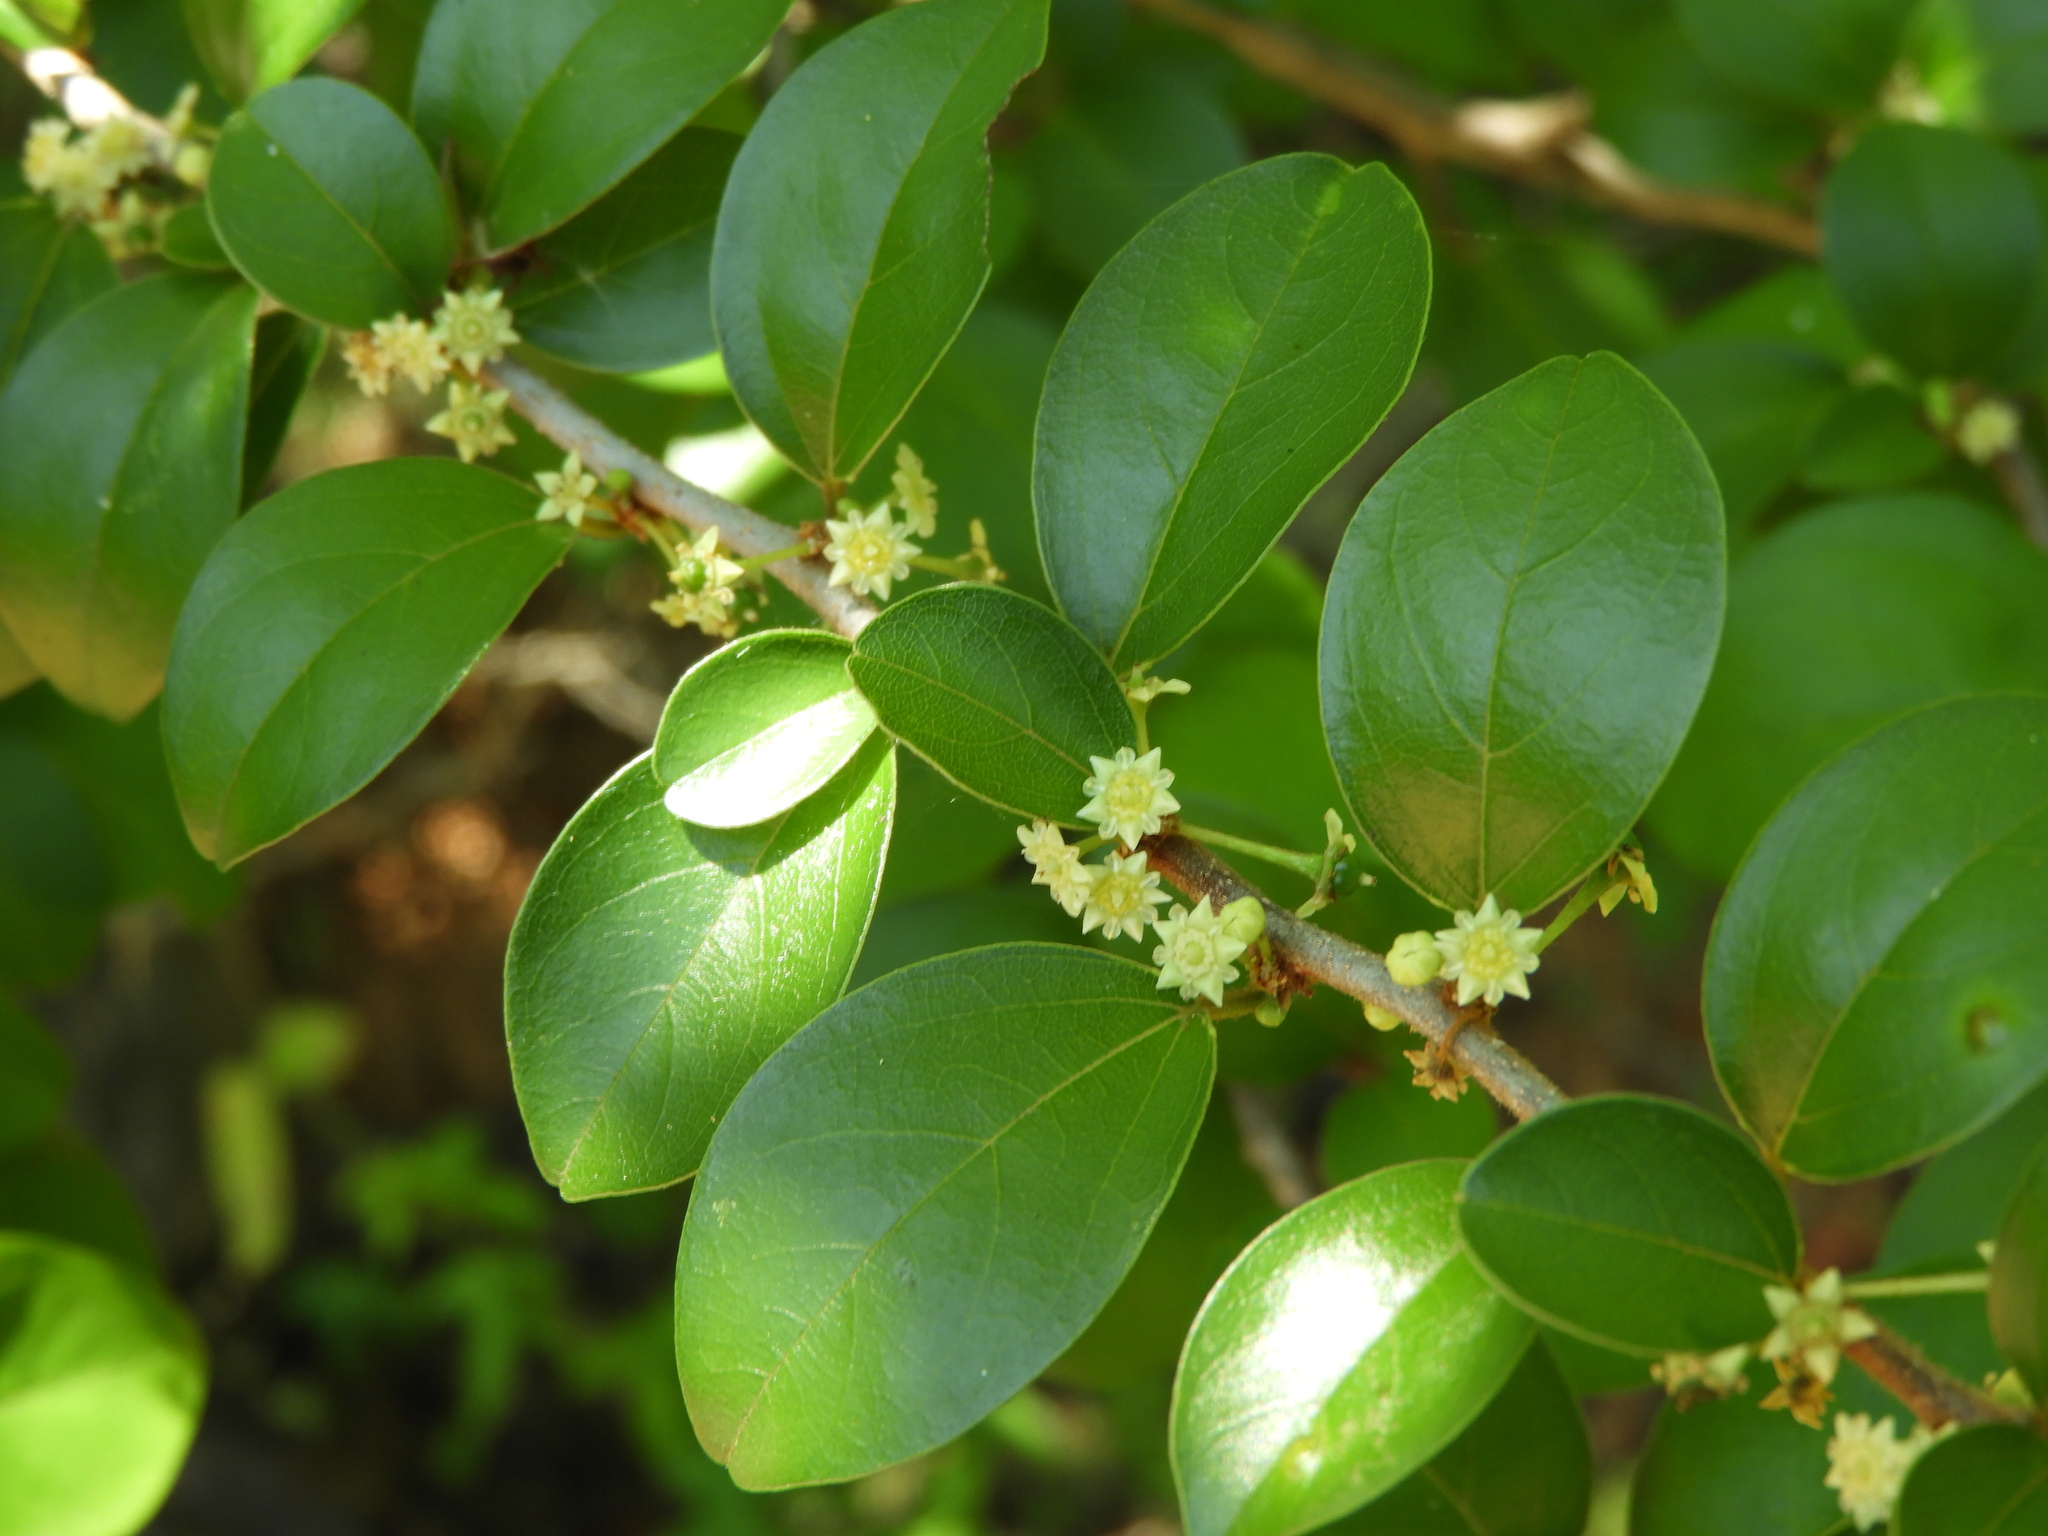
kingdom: Plantae
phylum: Tracheophyta
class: Magnoliopsida
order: Rosales
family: Rhamnaceae
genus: Colubrina
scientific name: Colubrina heteroneura
